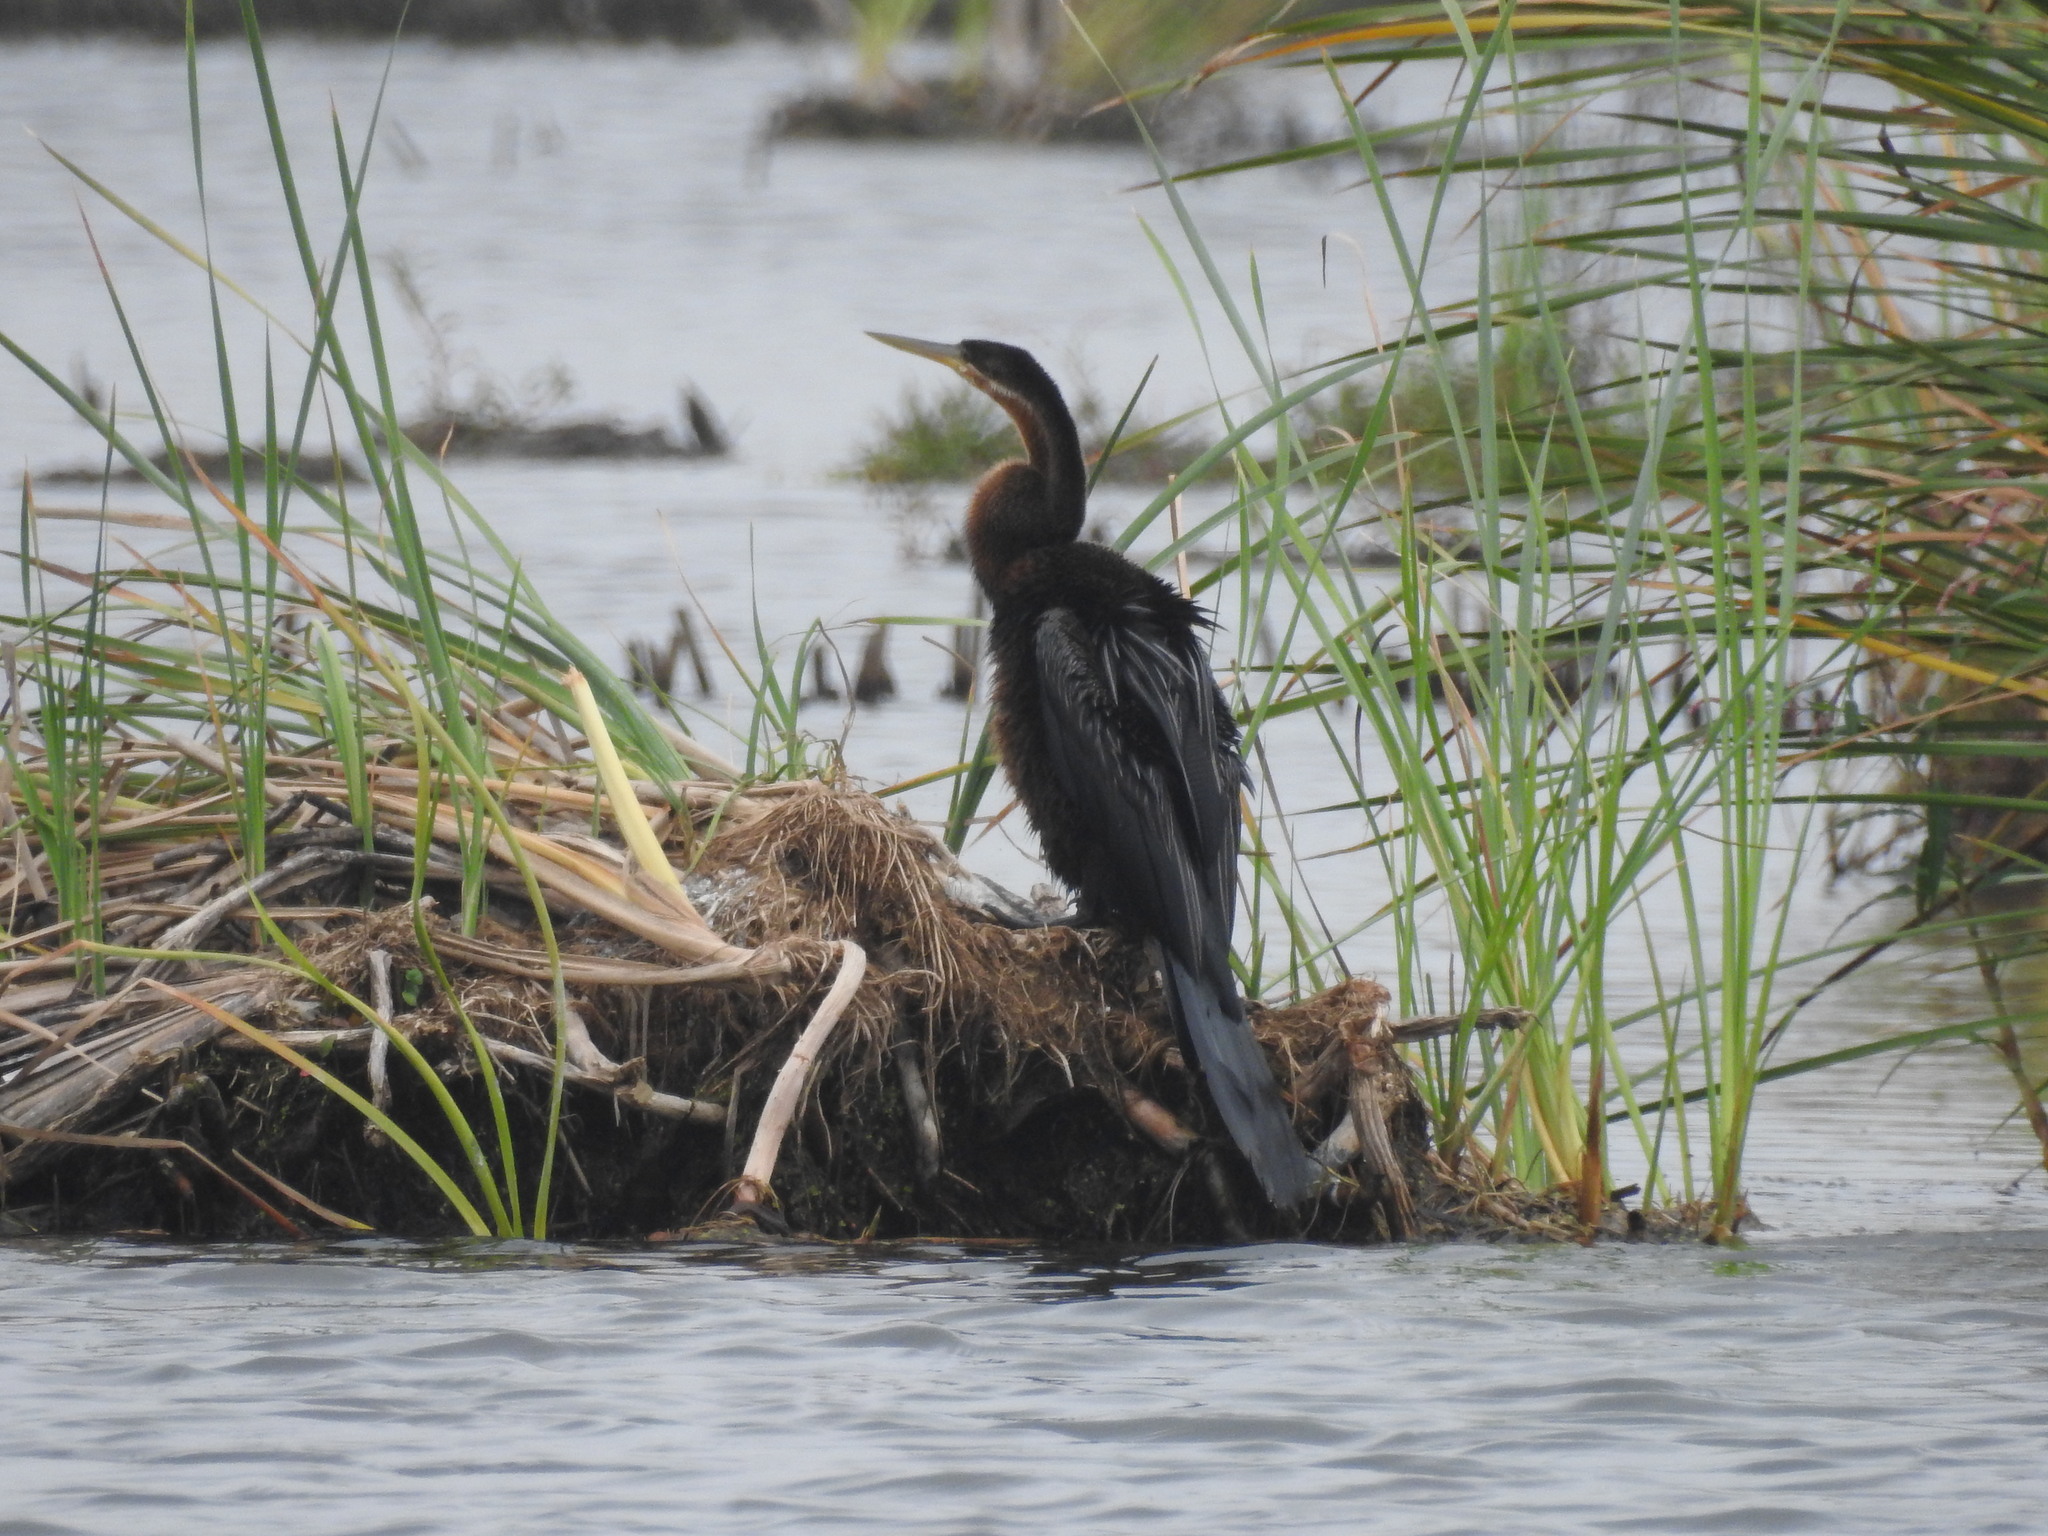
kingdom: Animalia
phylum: Chordata
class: Aves
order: Suliformes
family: Anhingidae
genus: Anhinga
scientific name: Anhinga rufa
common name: African darter
